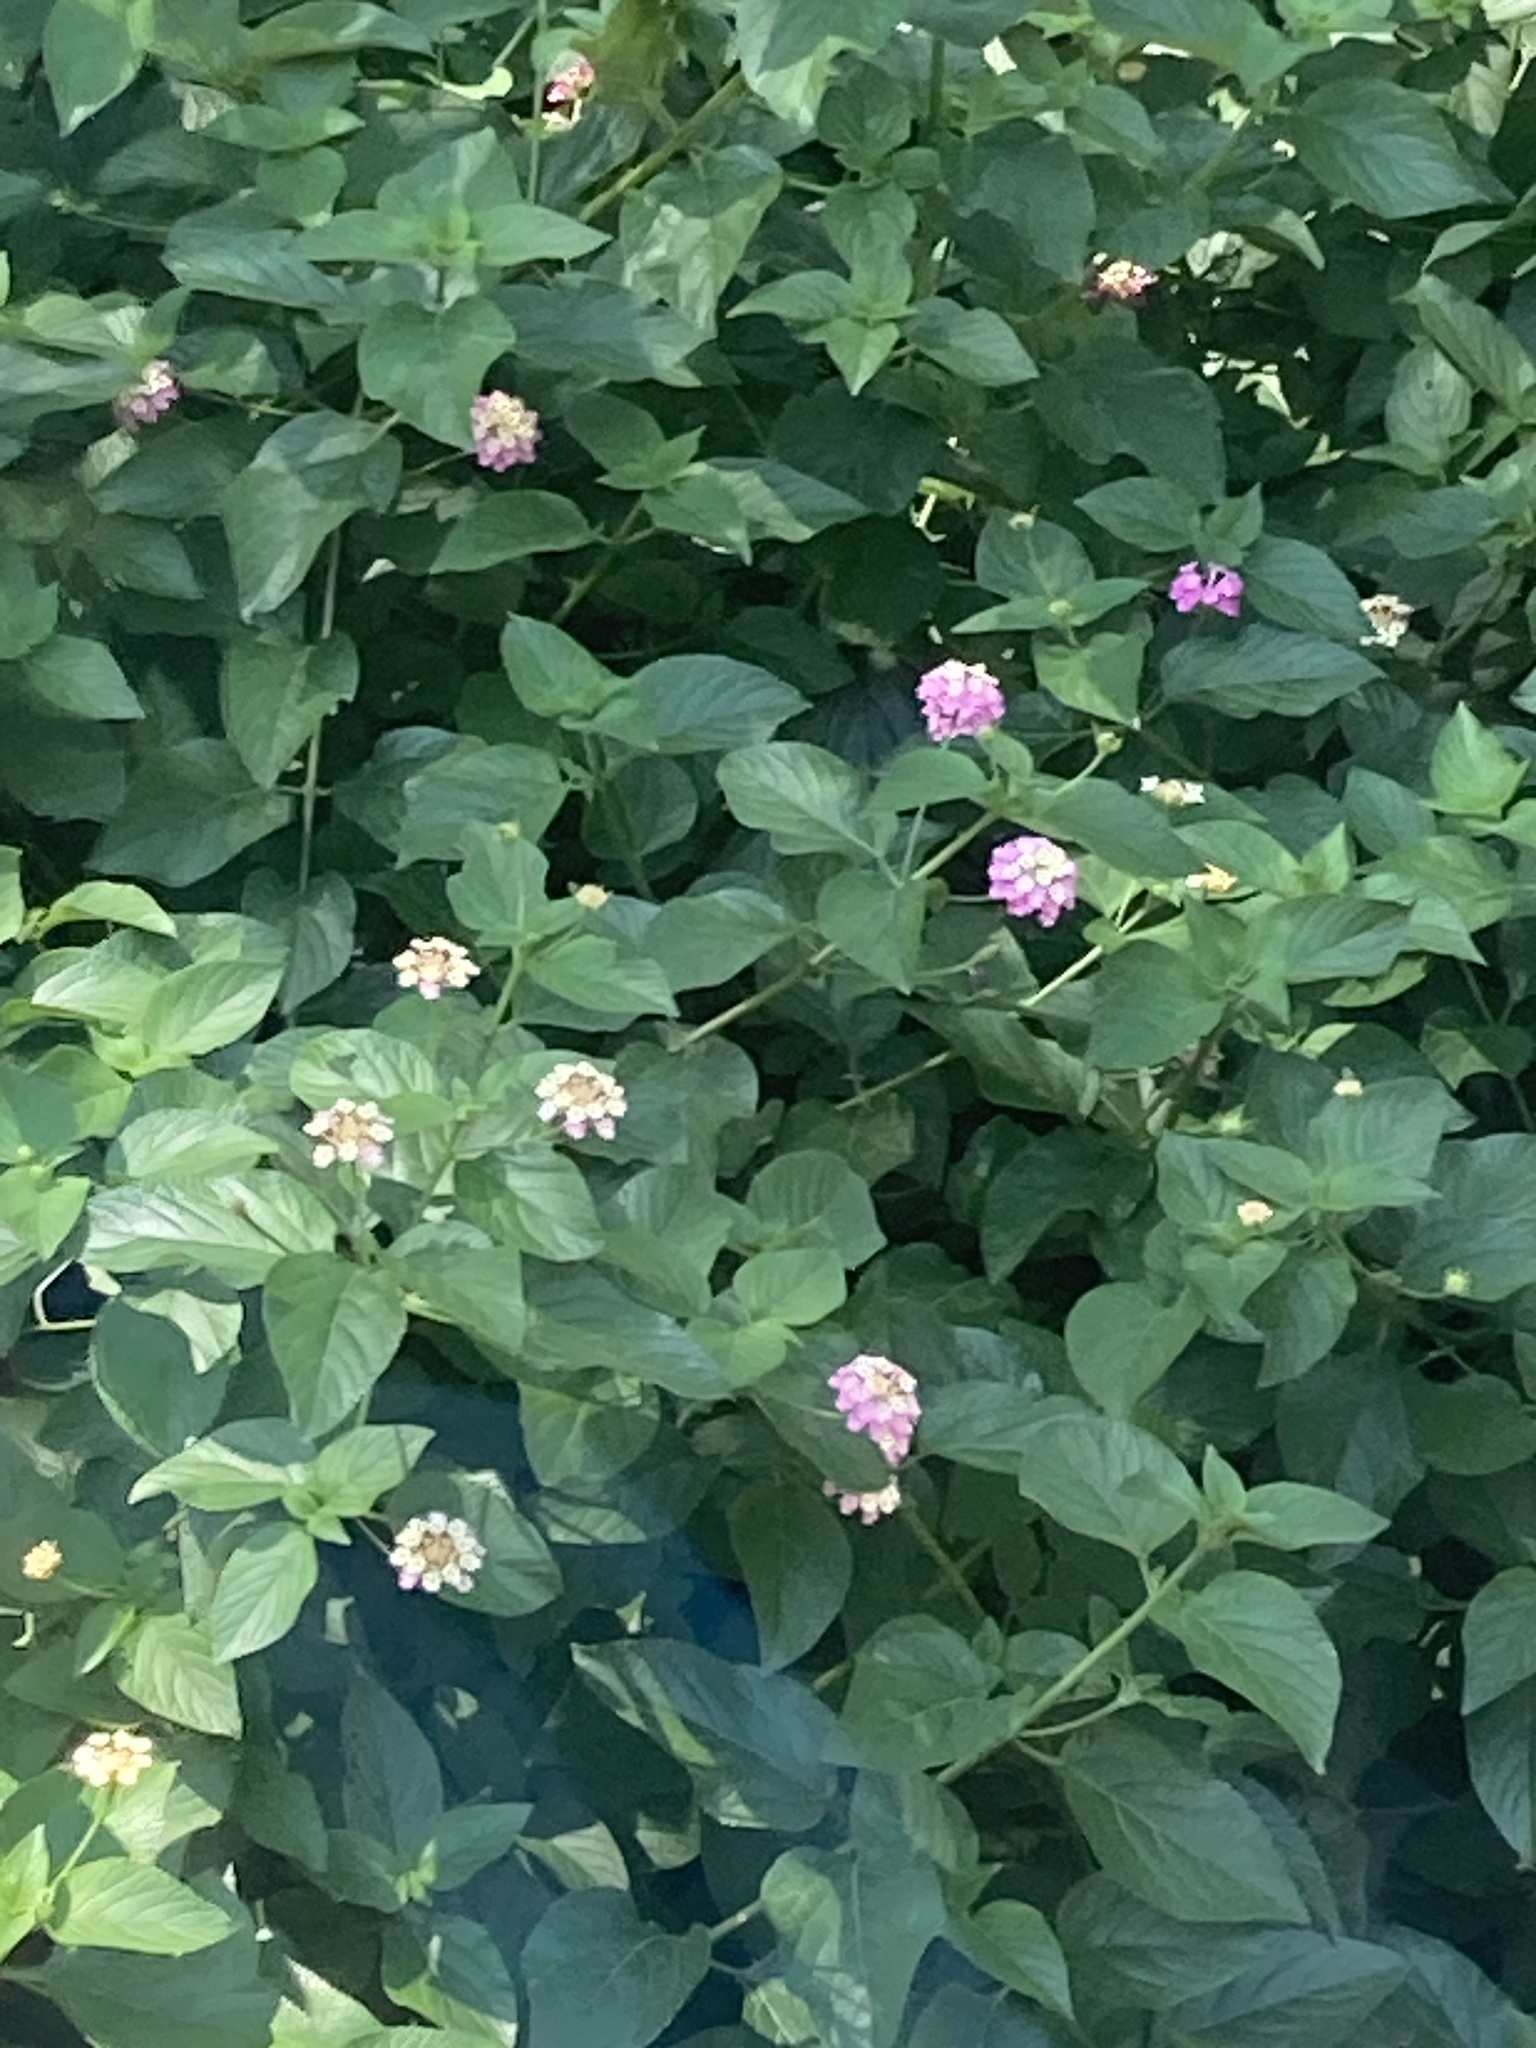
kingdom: Plantae
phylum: Tracheophyta
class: Magnoliopsida
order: Lamiales
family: Verbenaceae
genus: Lantana
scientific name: Lantana camara
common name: Lantana
